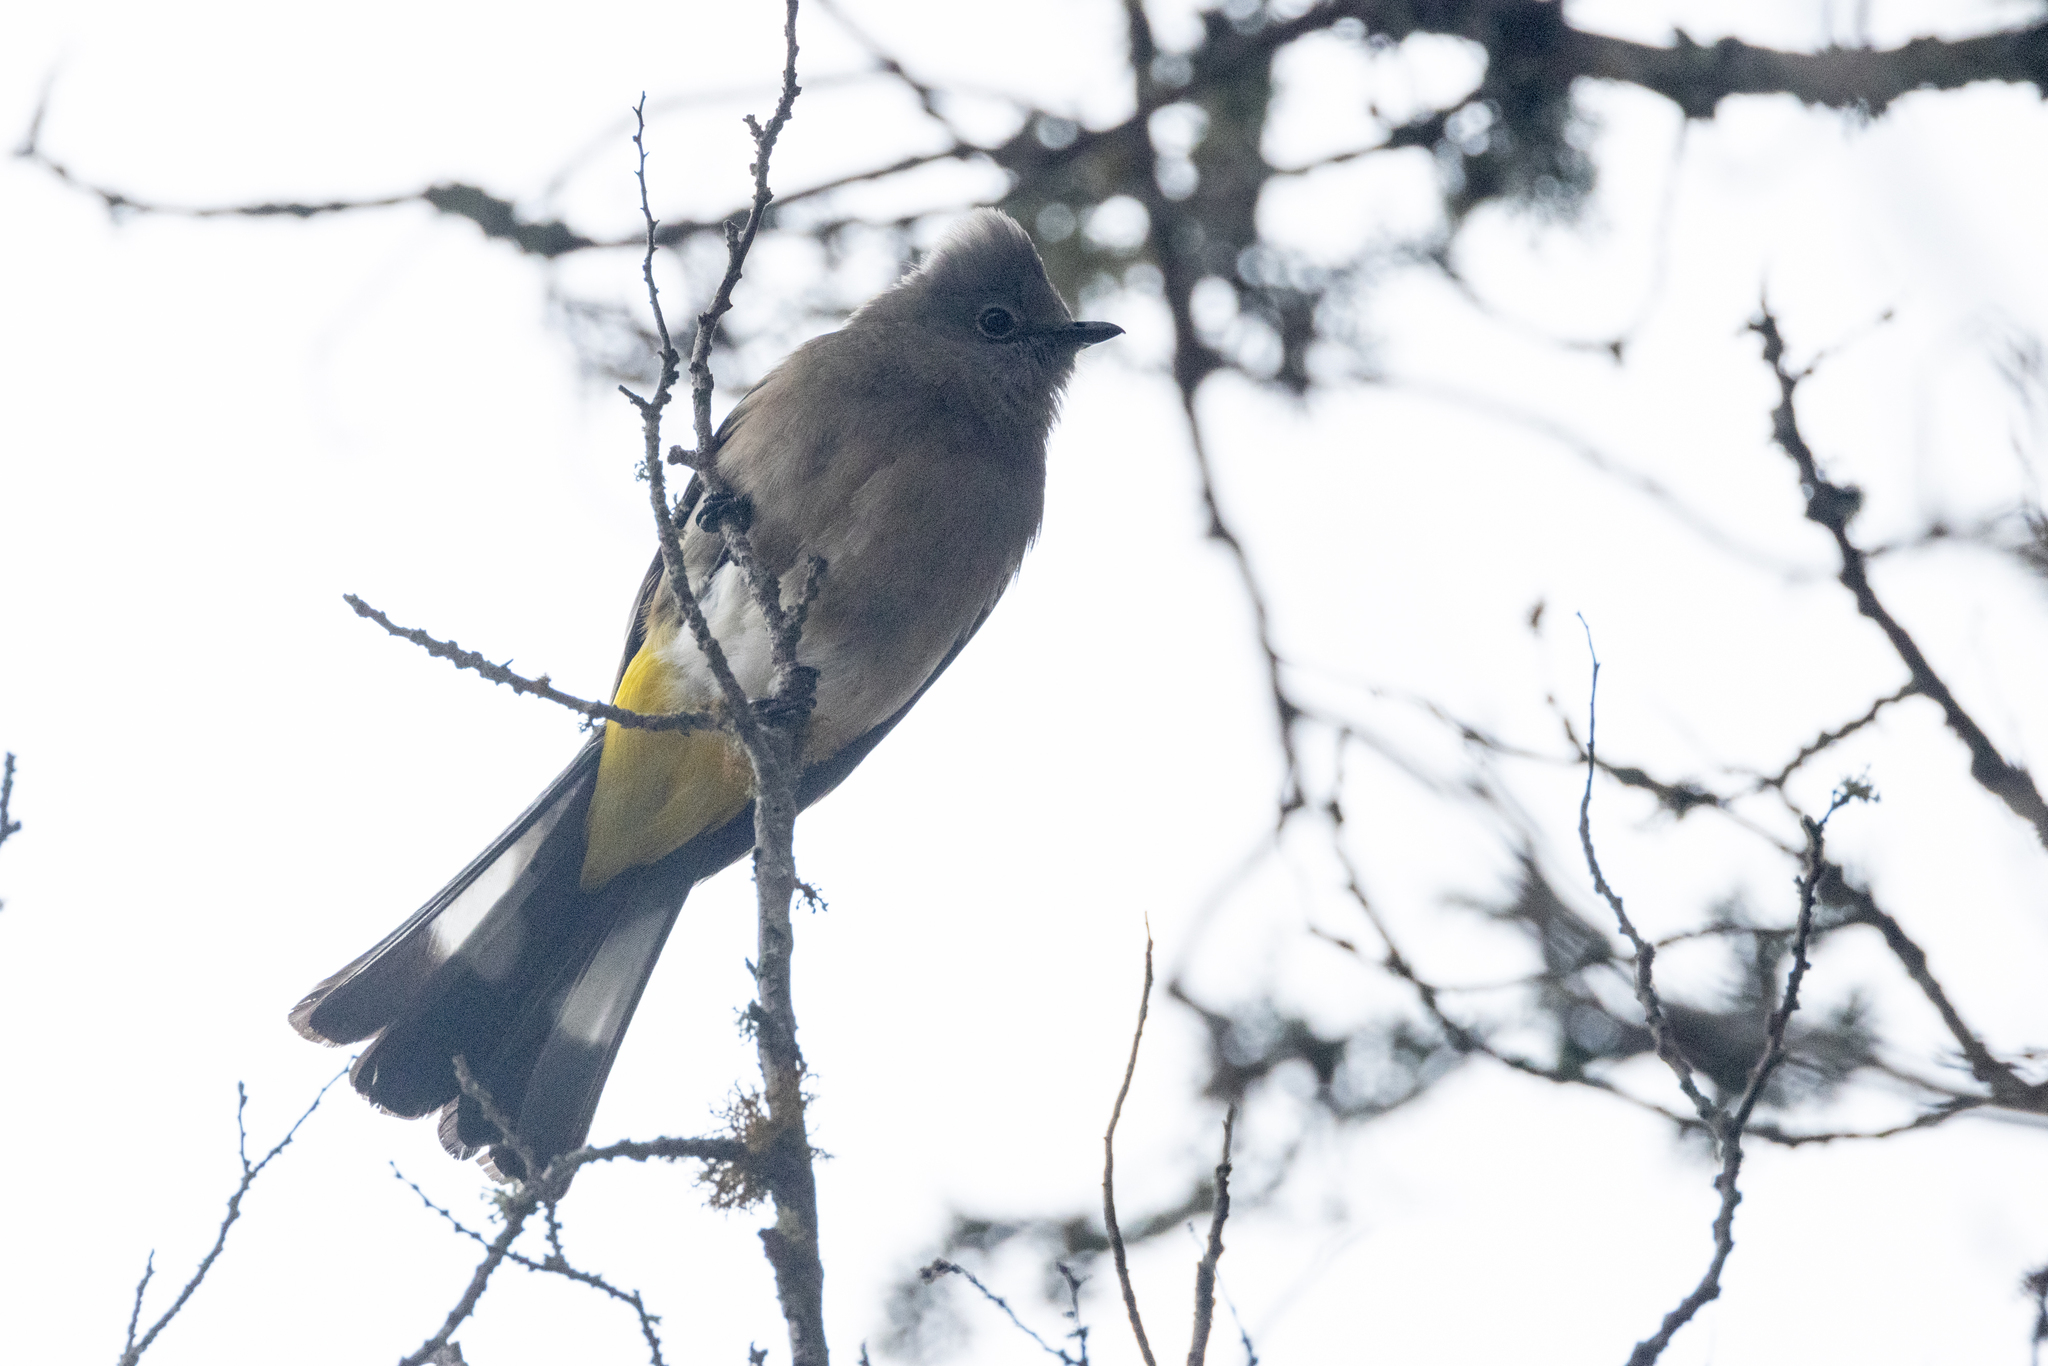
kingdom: Animalia
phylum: Chordata
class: Aves
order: Passeriformes
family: Ptilogonatidae
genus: Ptilogonys
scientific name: Ptilogonys cinereus
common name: Gray silky-flycatcher
